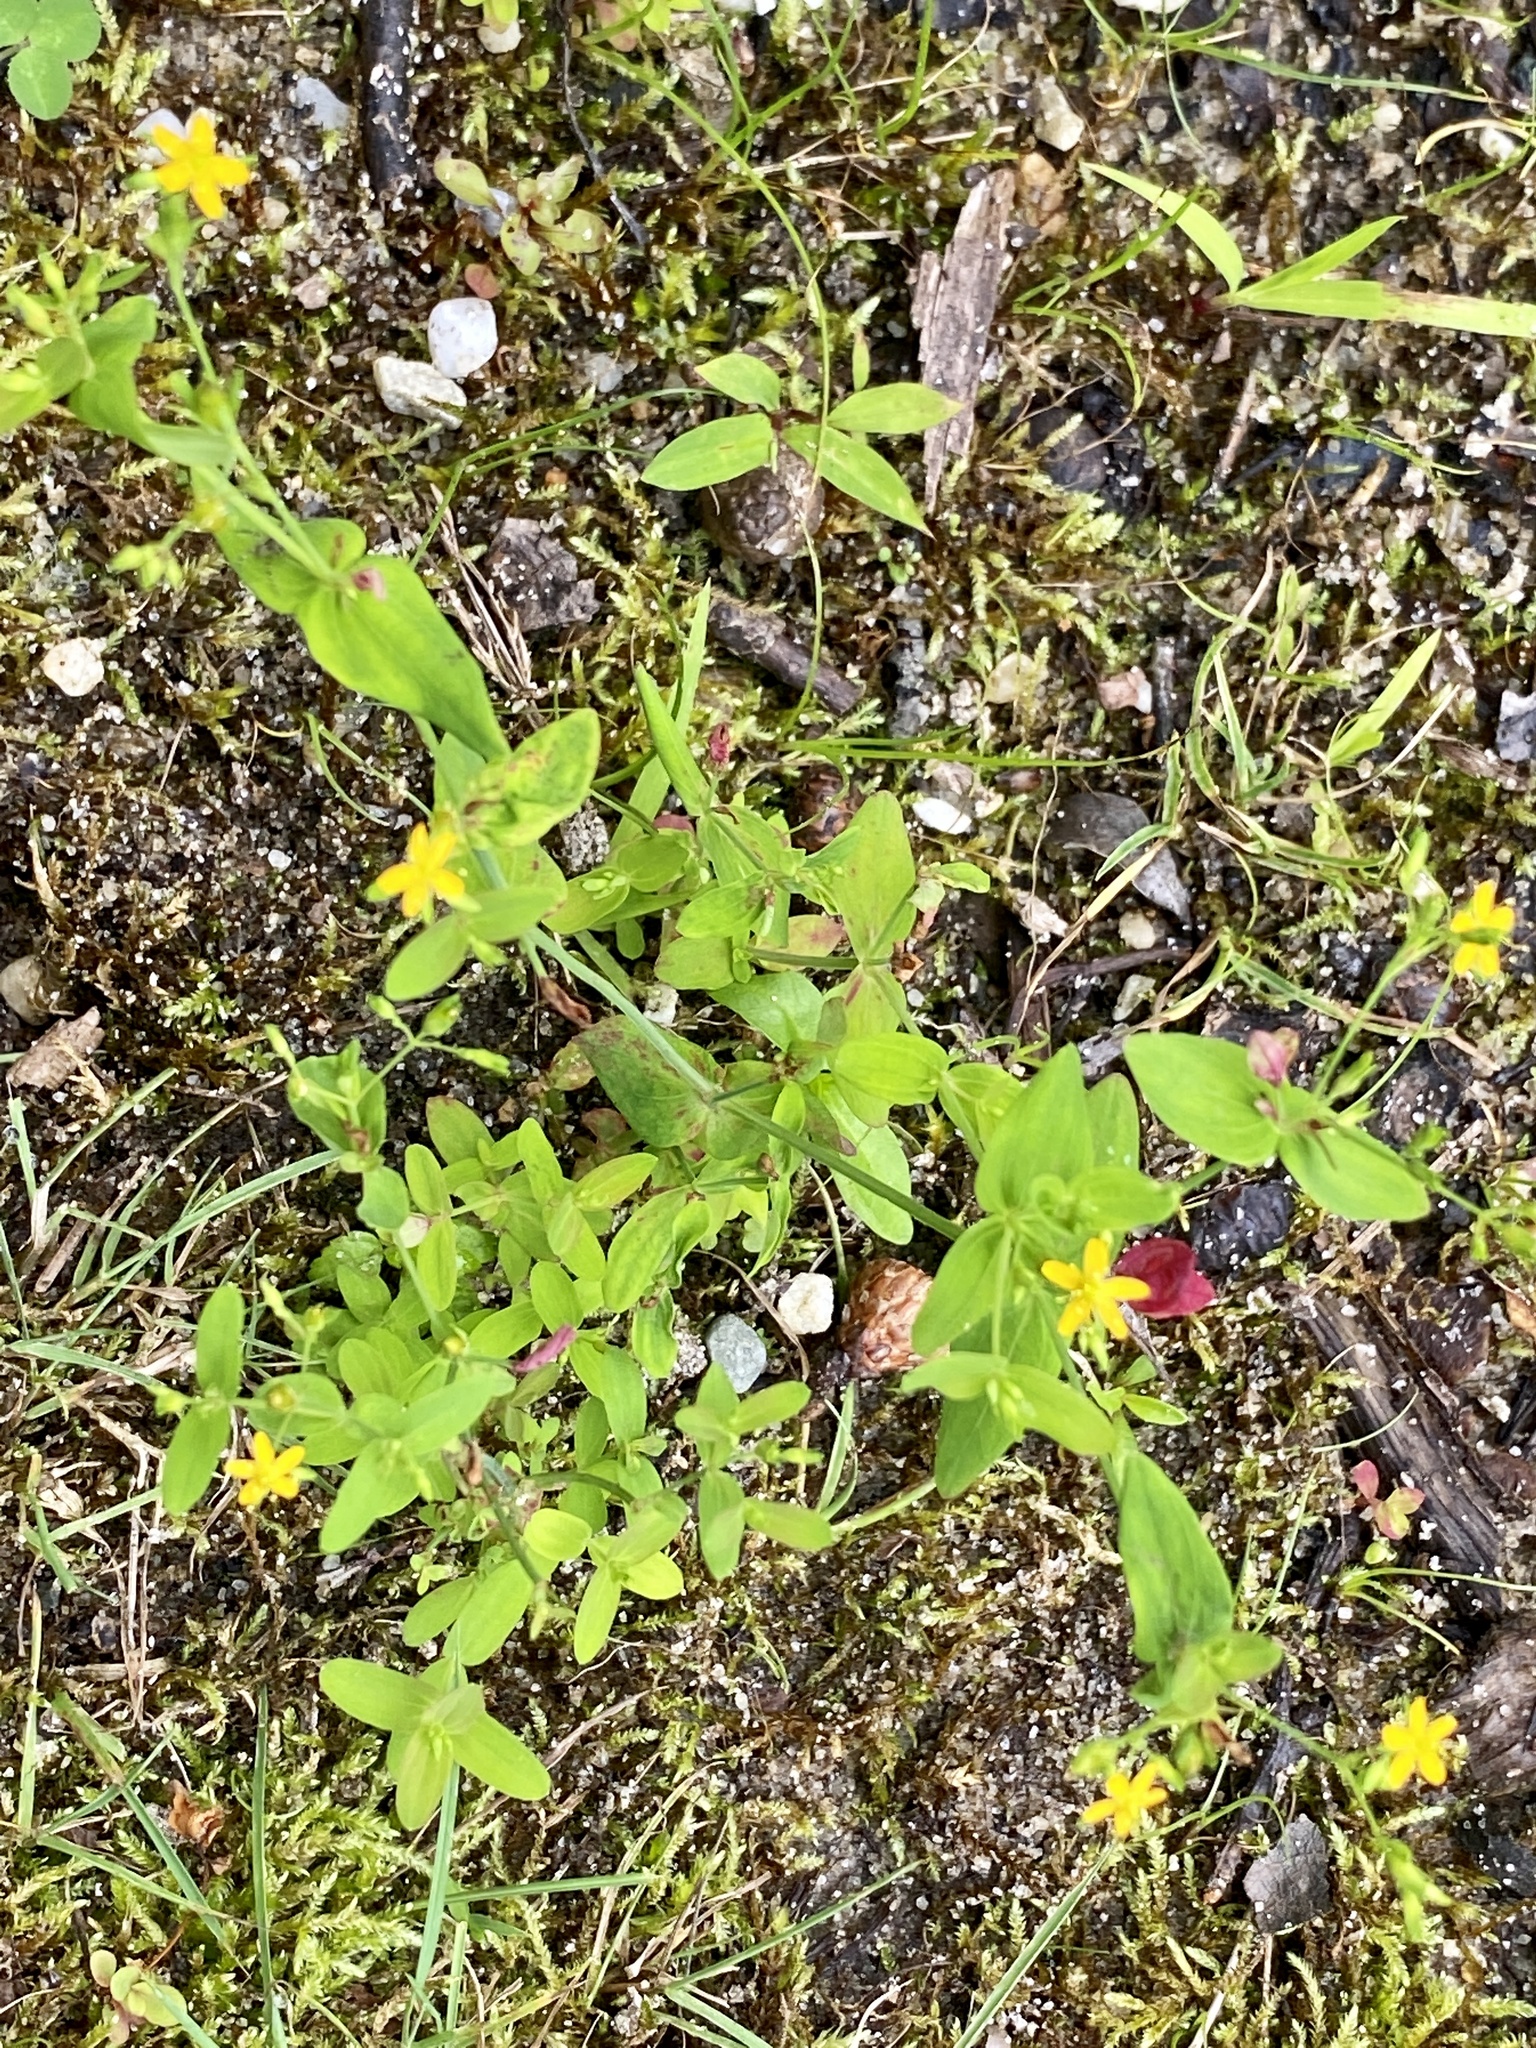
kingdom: Plantae
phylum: Tracheophyta
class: Magnoliopsida
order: Malpighiales
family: Hypericaceae
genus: Hypericum
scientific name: Hypericum mutilum
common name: Dwarf st. john's-wort
